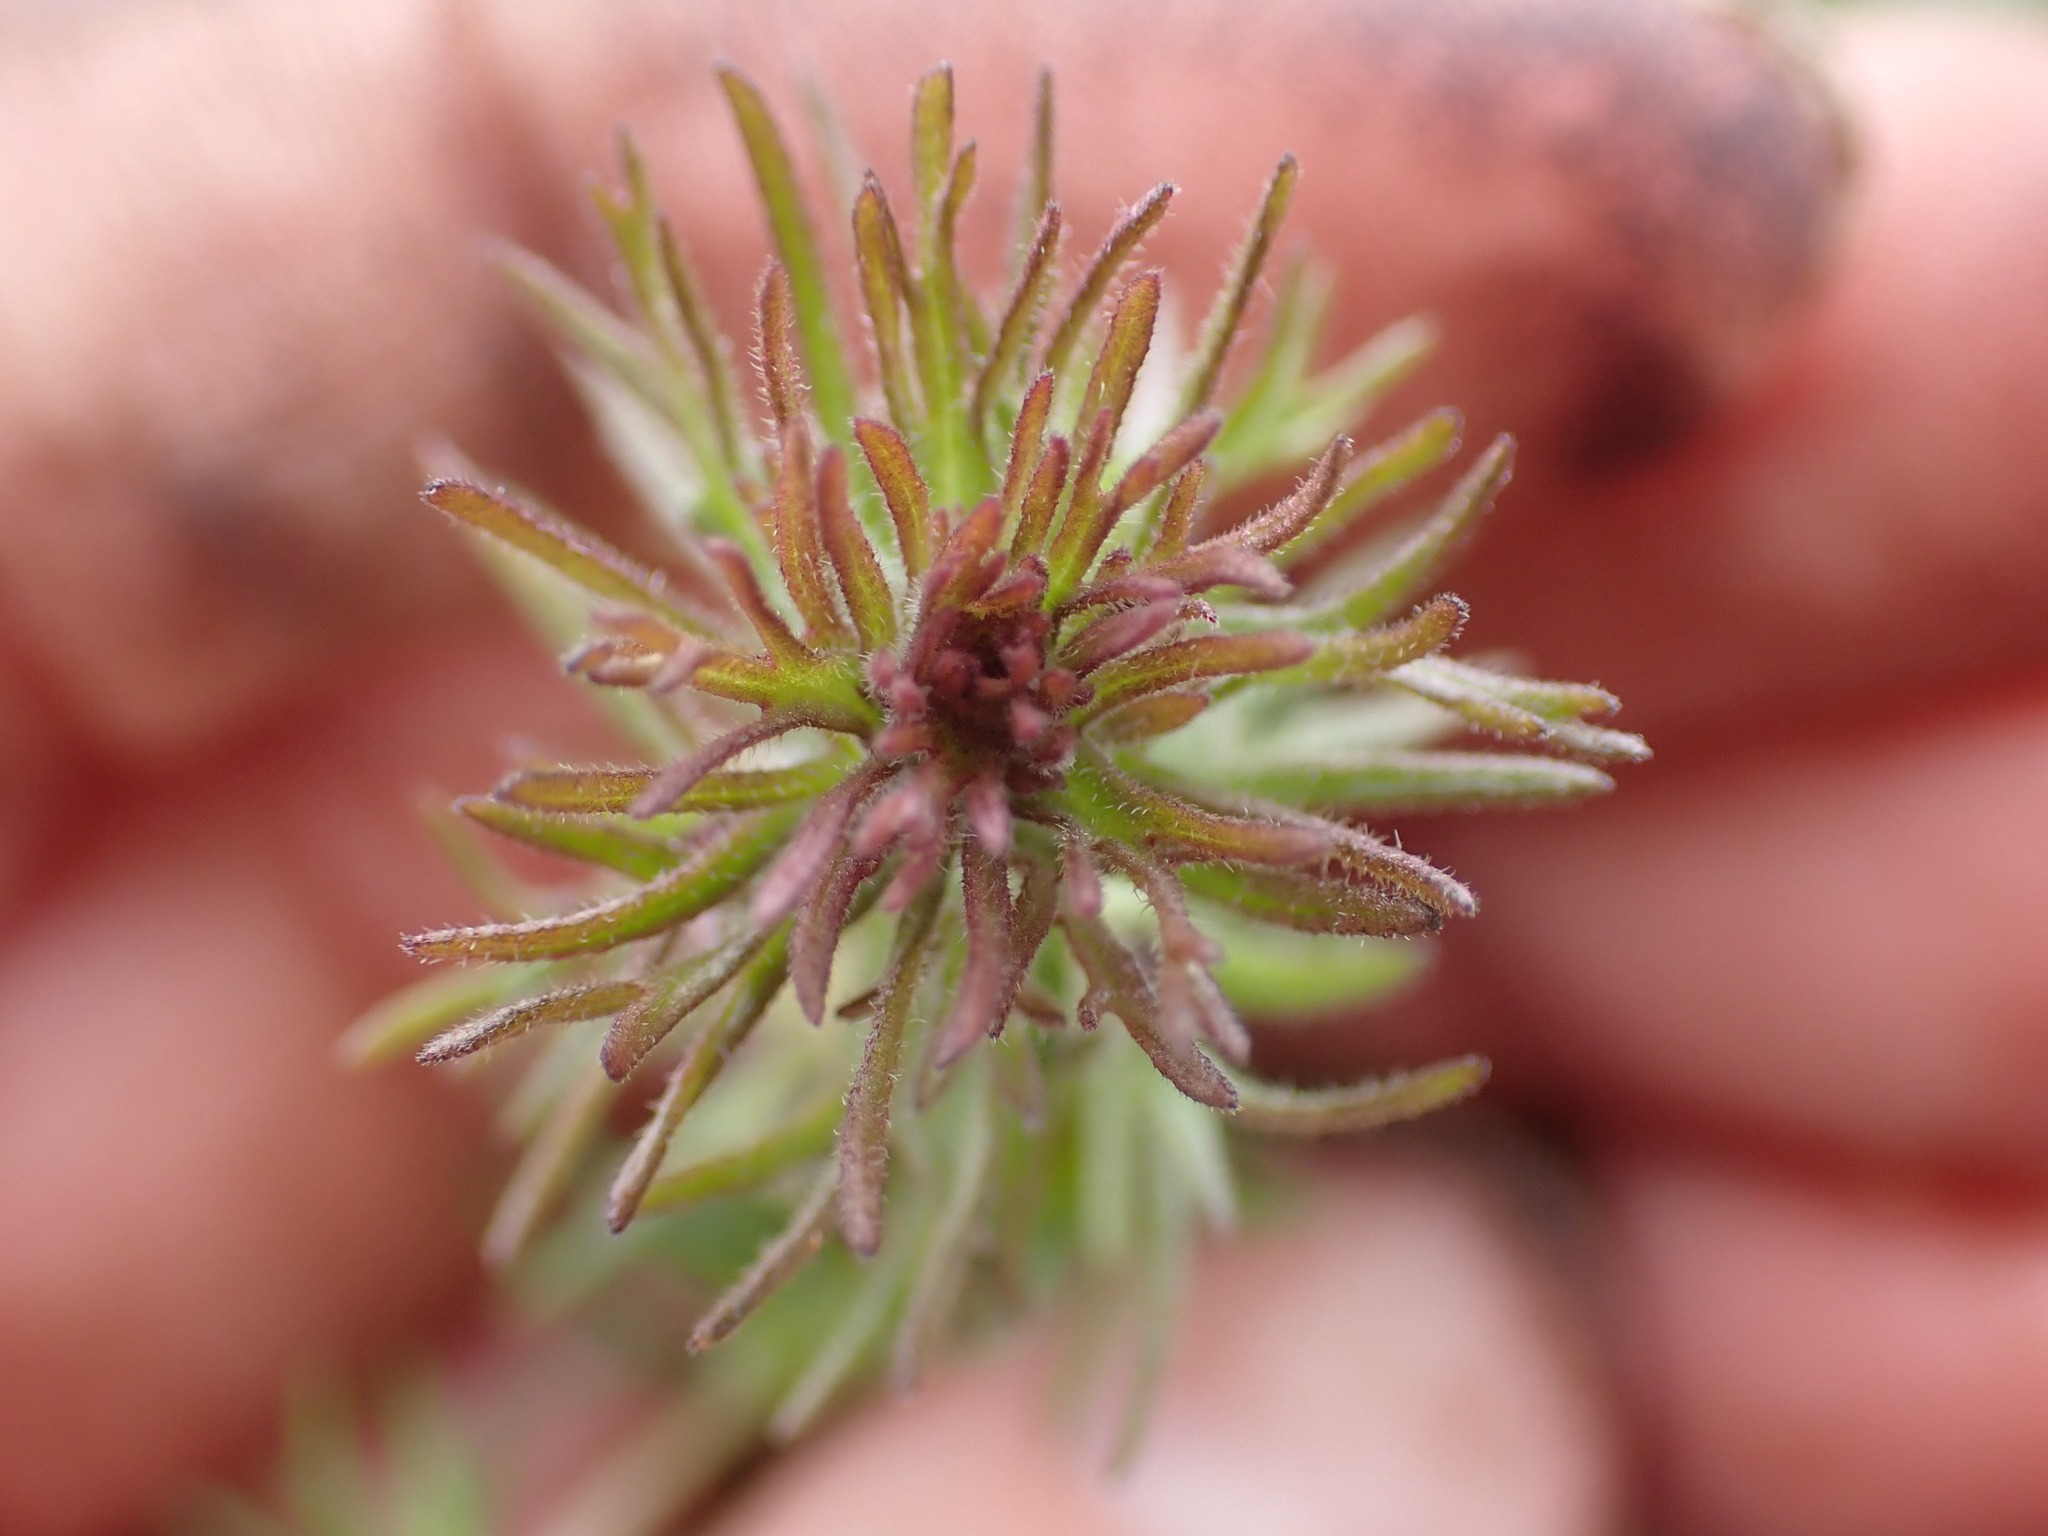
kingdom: Plantae
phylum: Tracheophyta
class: Magnoliopsida
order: Lamiales
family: Orobanchaceae
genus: Triphysaria
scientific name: Triphysaria pusilla
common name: Dwarf false owl-clover
